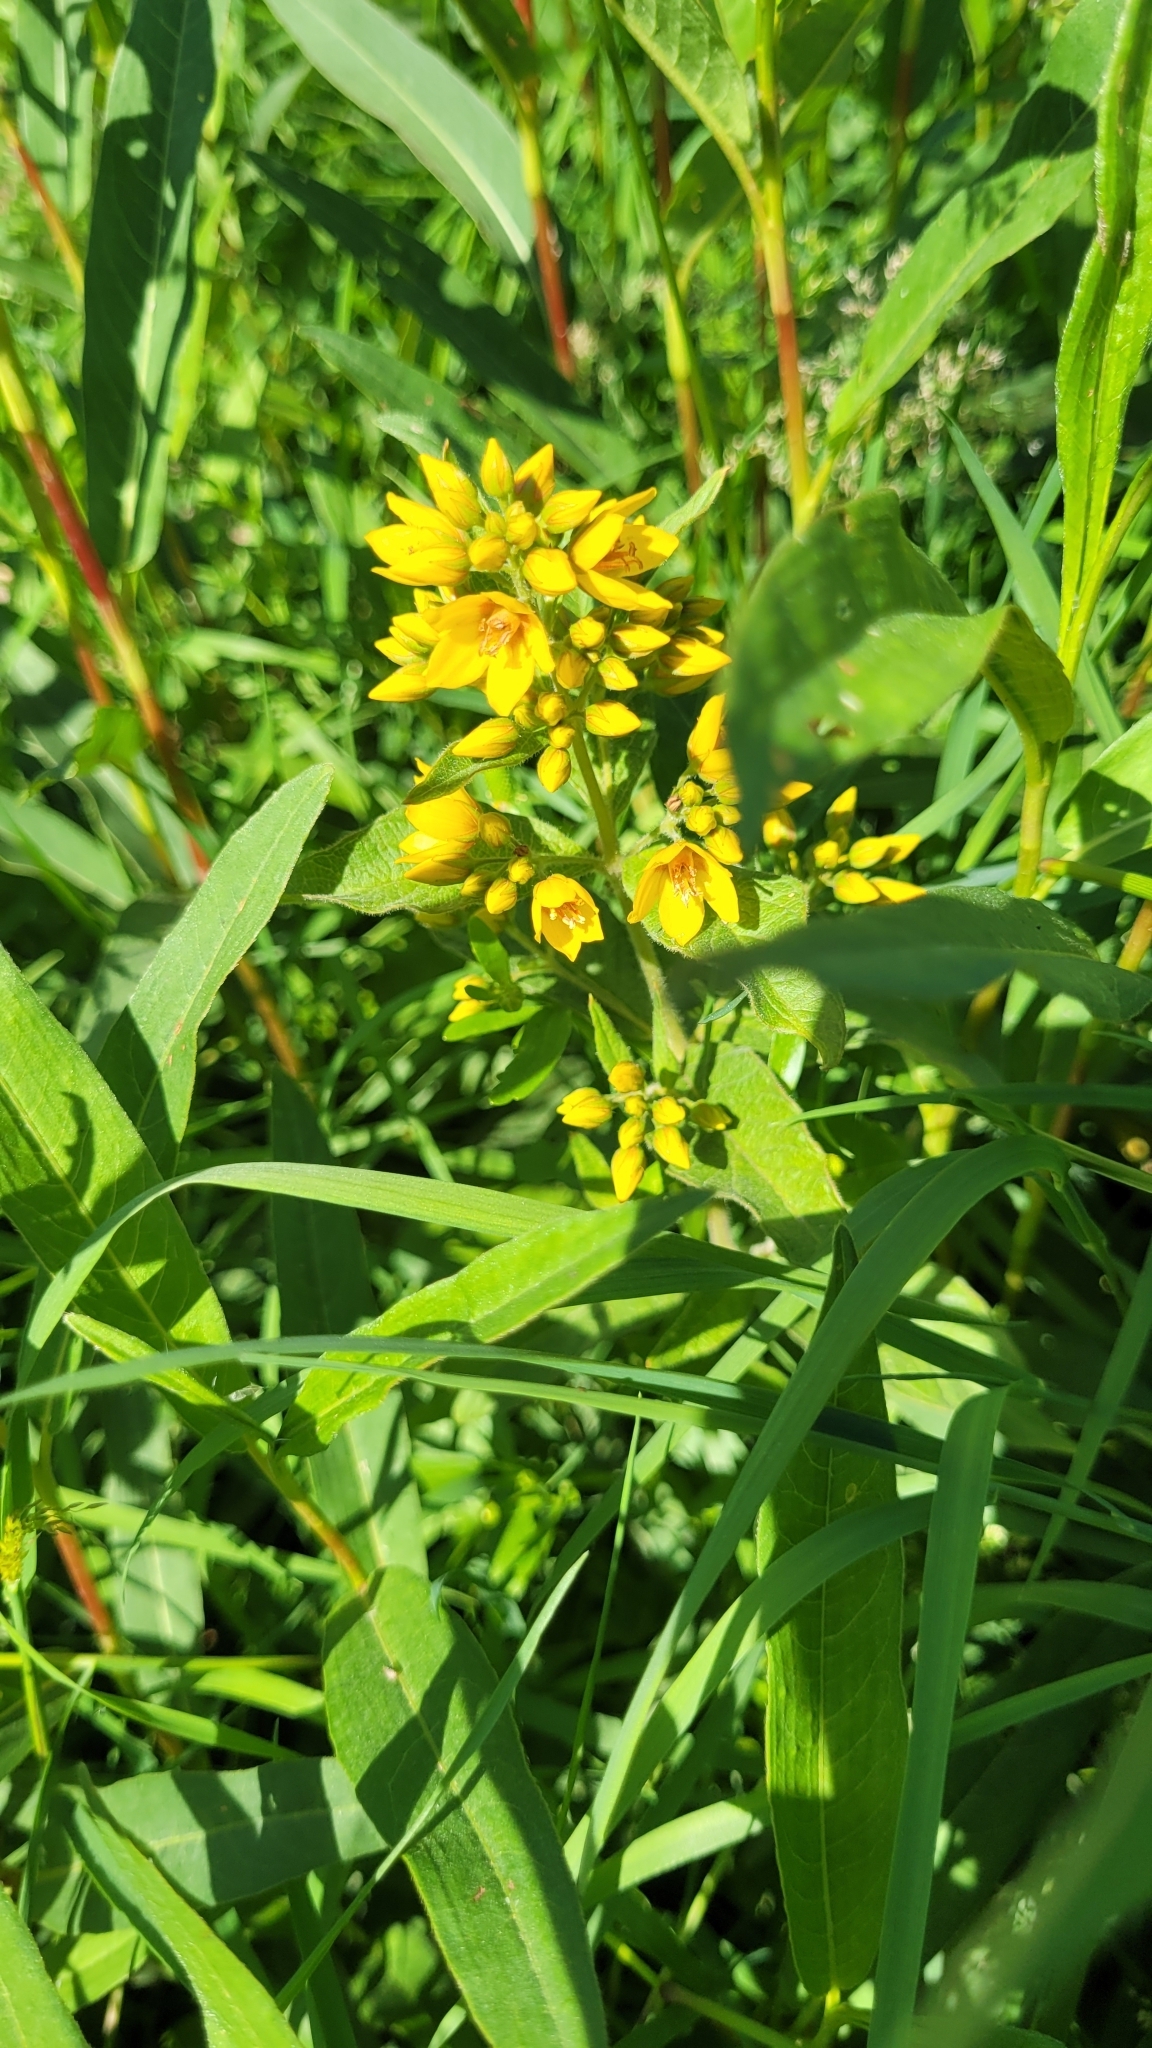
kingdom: Plantae
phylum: Tracheophyta
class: Magnoliopsida
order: Ericales
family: Primulaceae
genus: Lysimachia
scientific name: Lysimachia vulgaris
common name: Yellow loosestrife
